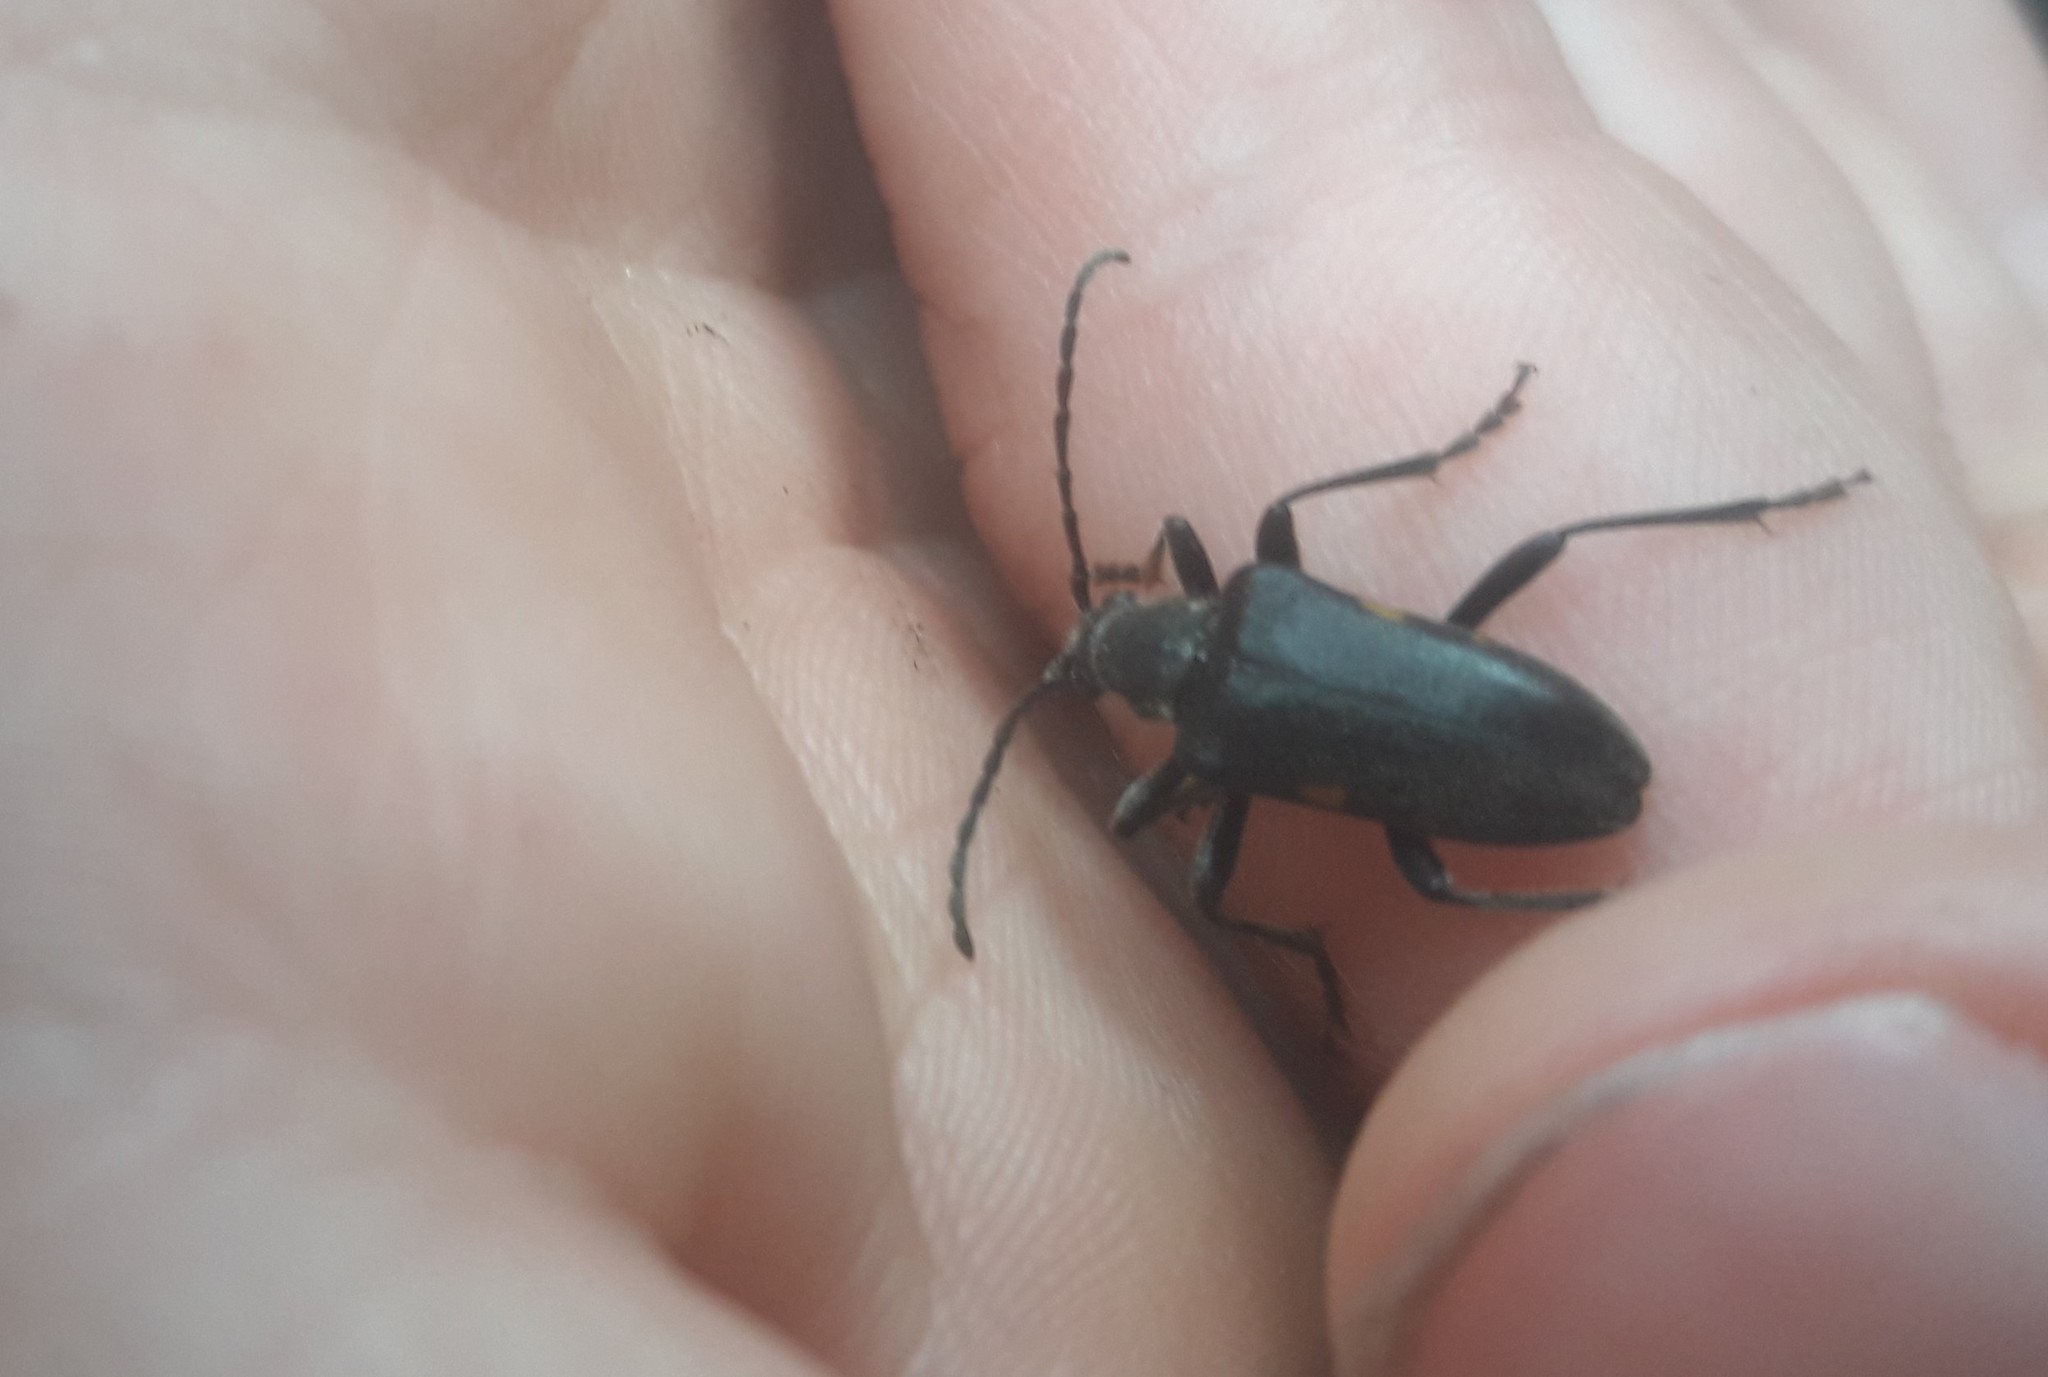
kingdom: Animalia
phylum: Arthropoda
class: Insecta
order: Coleoptera
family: Cerambycidae
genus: Brachyta
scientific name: Brachyta interrogationis
